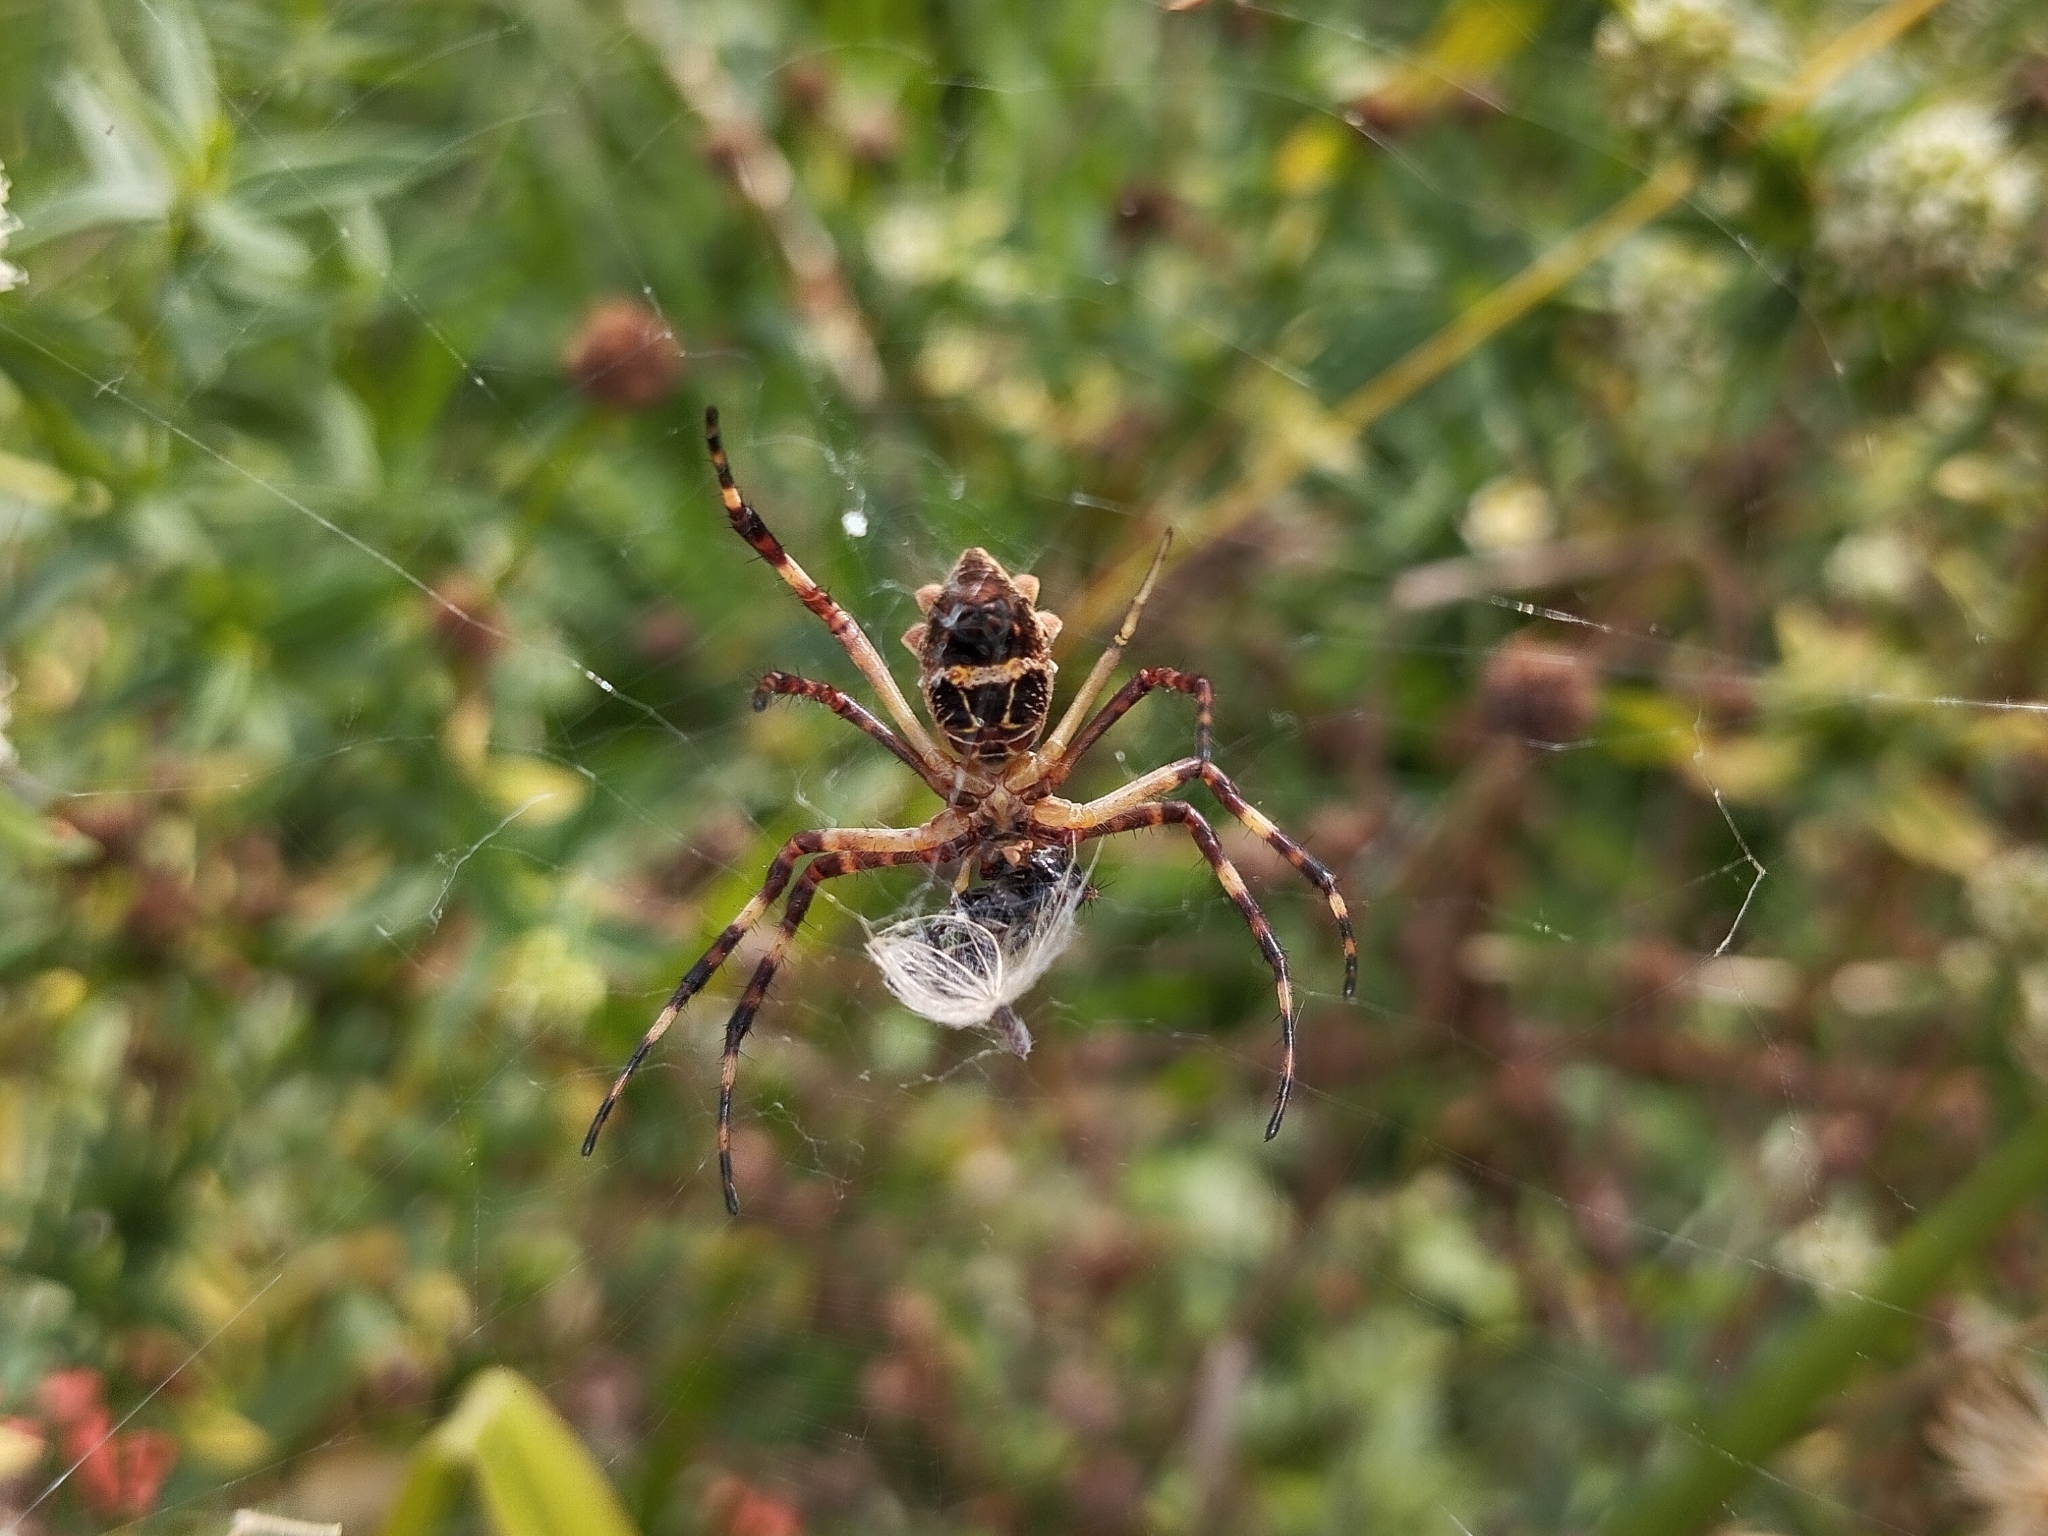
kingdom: Animalia
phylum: Arthropoda
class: Arachnida
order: Araneae
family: Araneidae
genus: Argiope
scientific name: Argiope argentata
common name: Orb weavers
